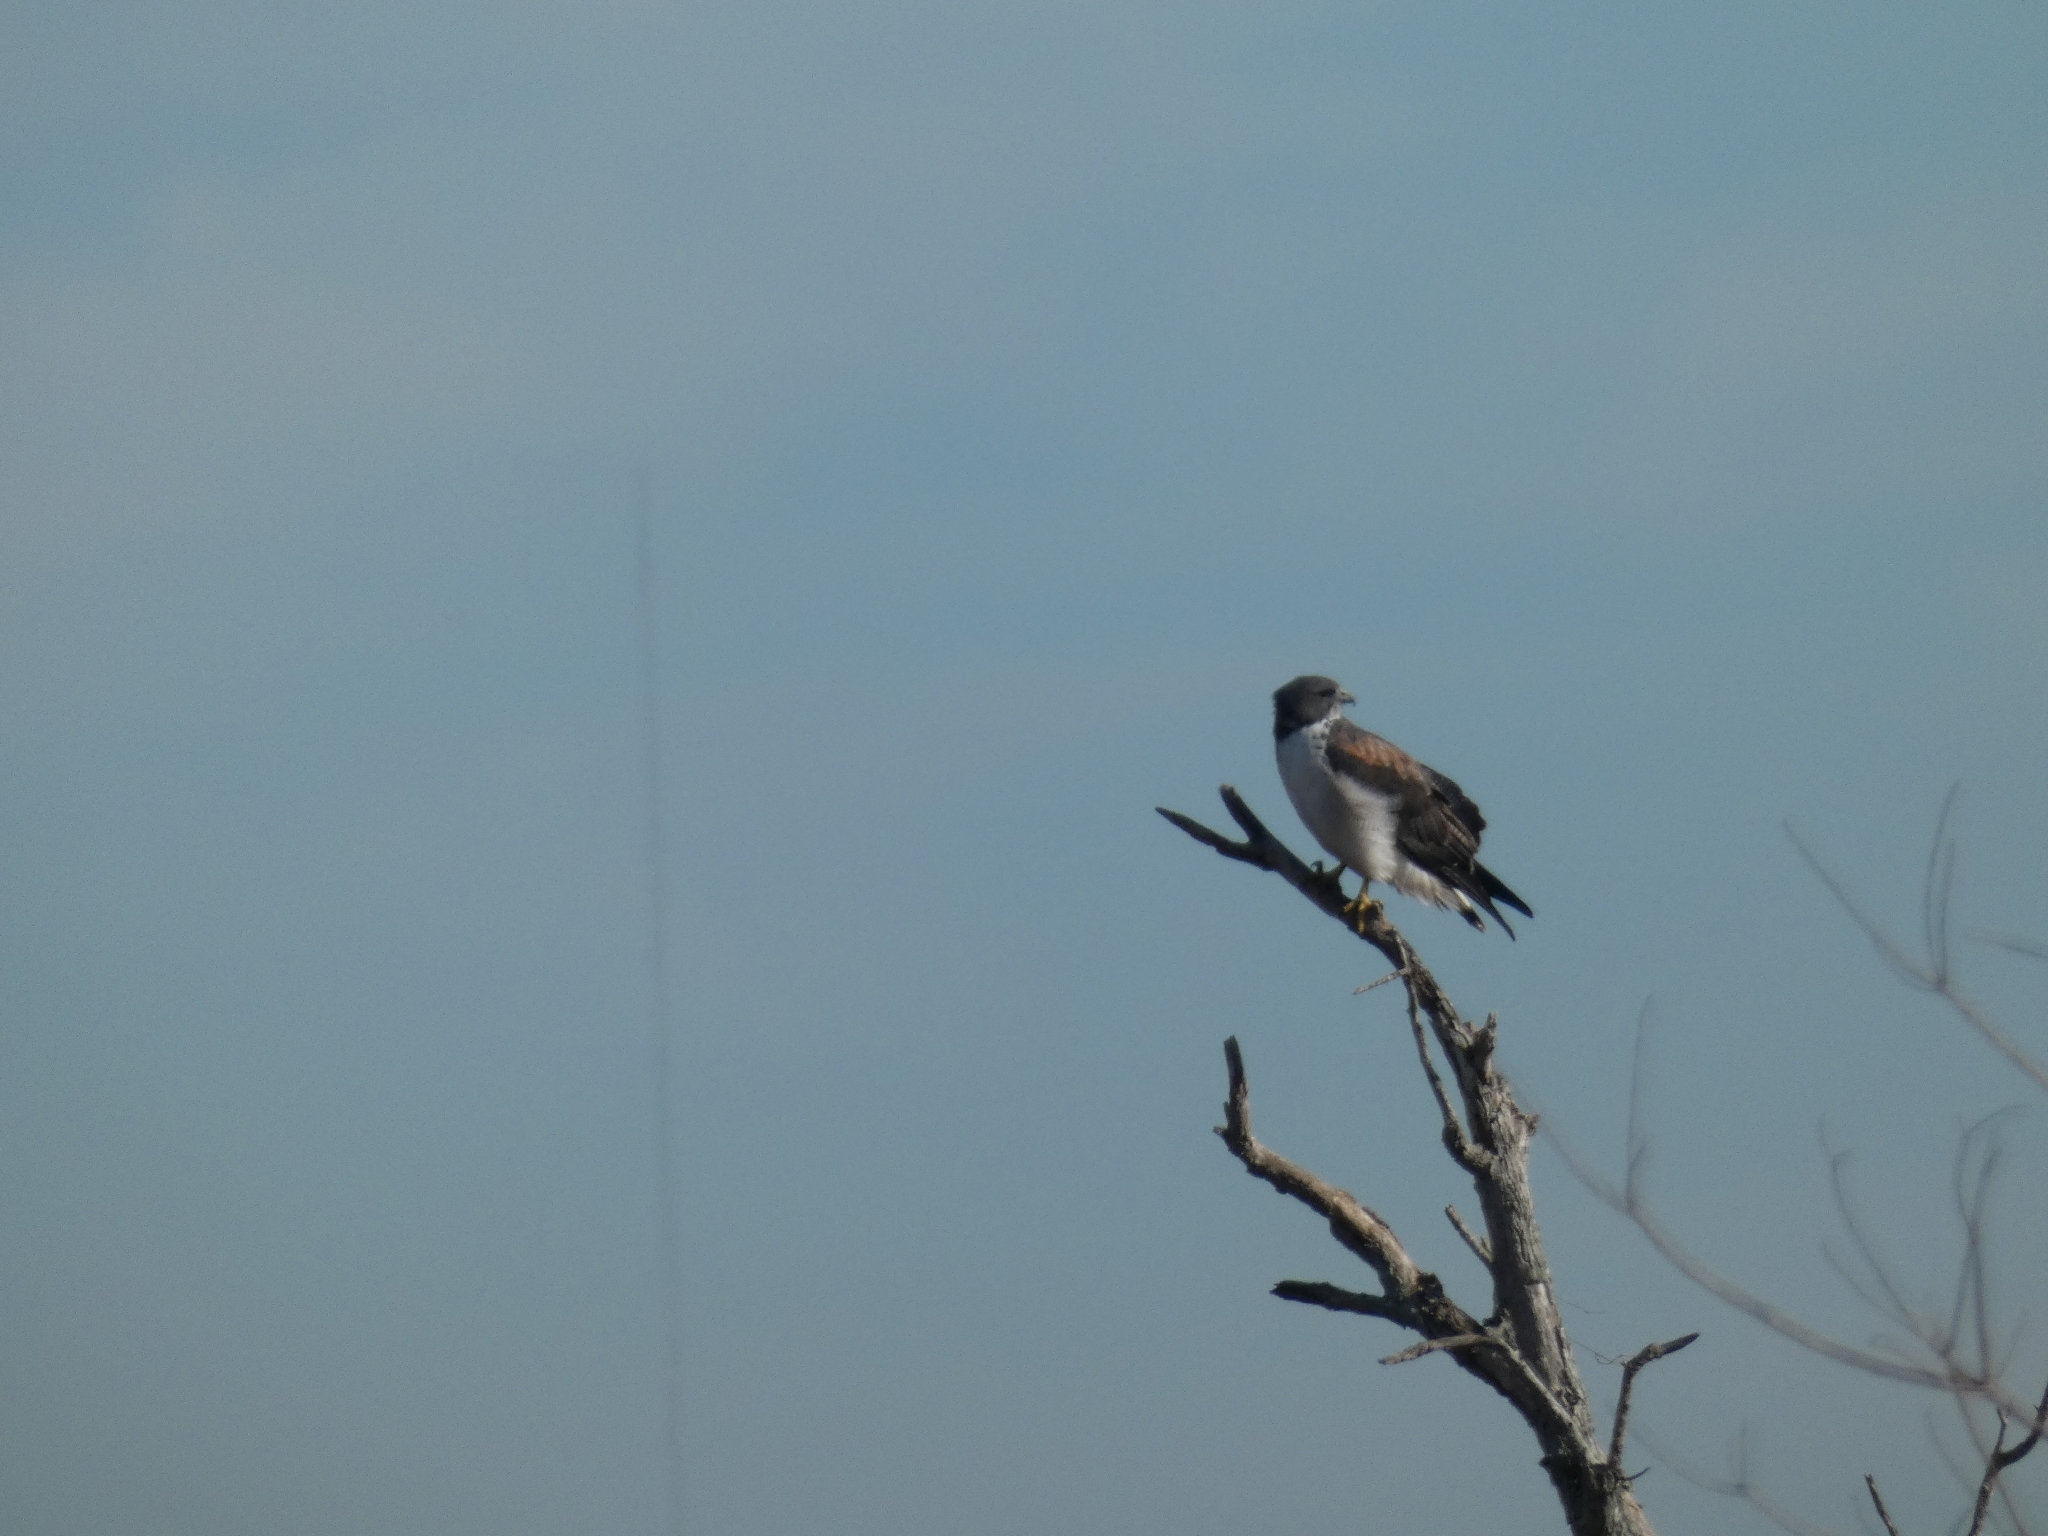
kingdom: Animalia
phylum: Chordata
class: Aves
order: Accipitriformes
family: Accipitridae
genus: Buteo
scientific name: Buteo albicaudatus
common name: White-tailed hawk
